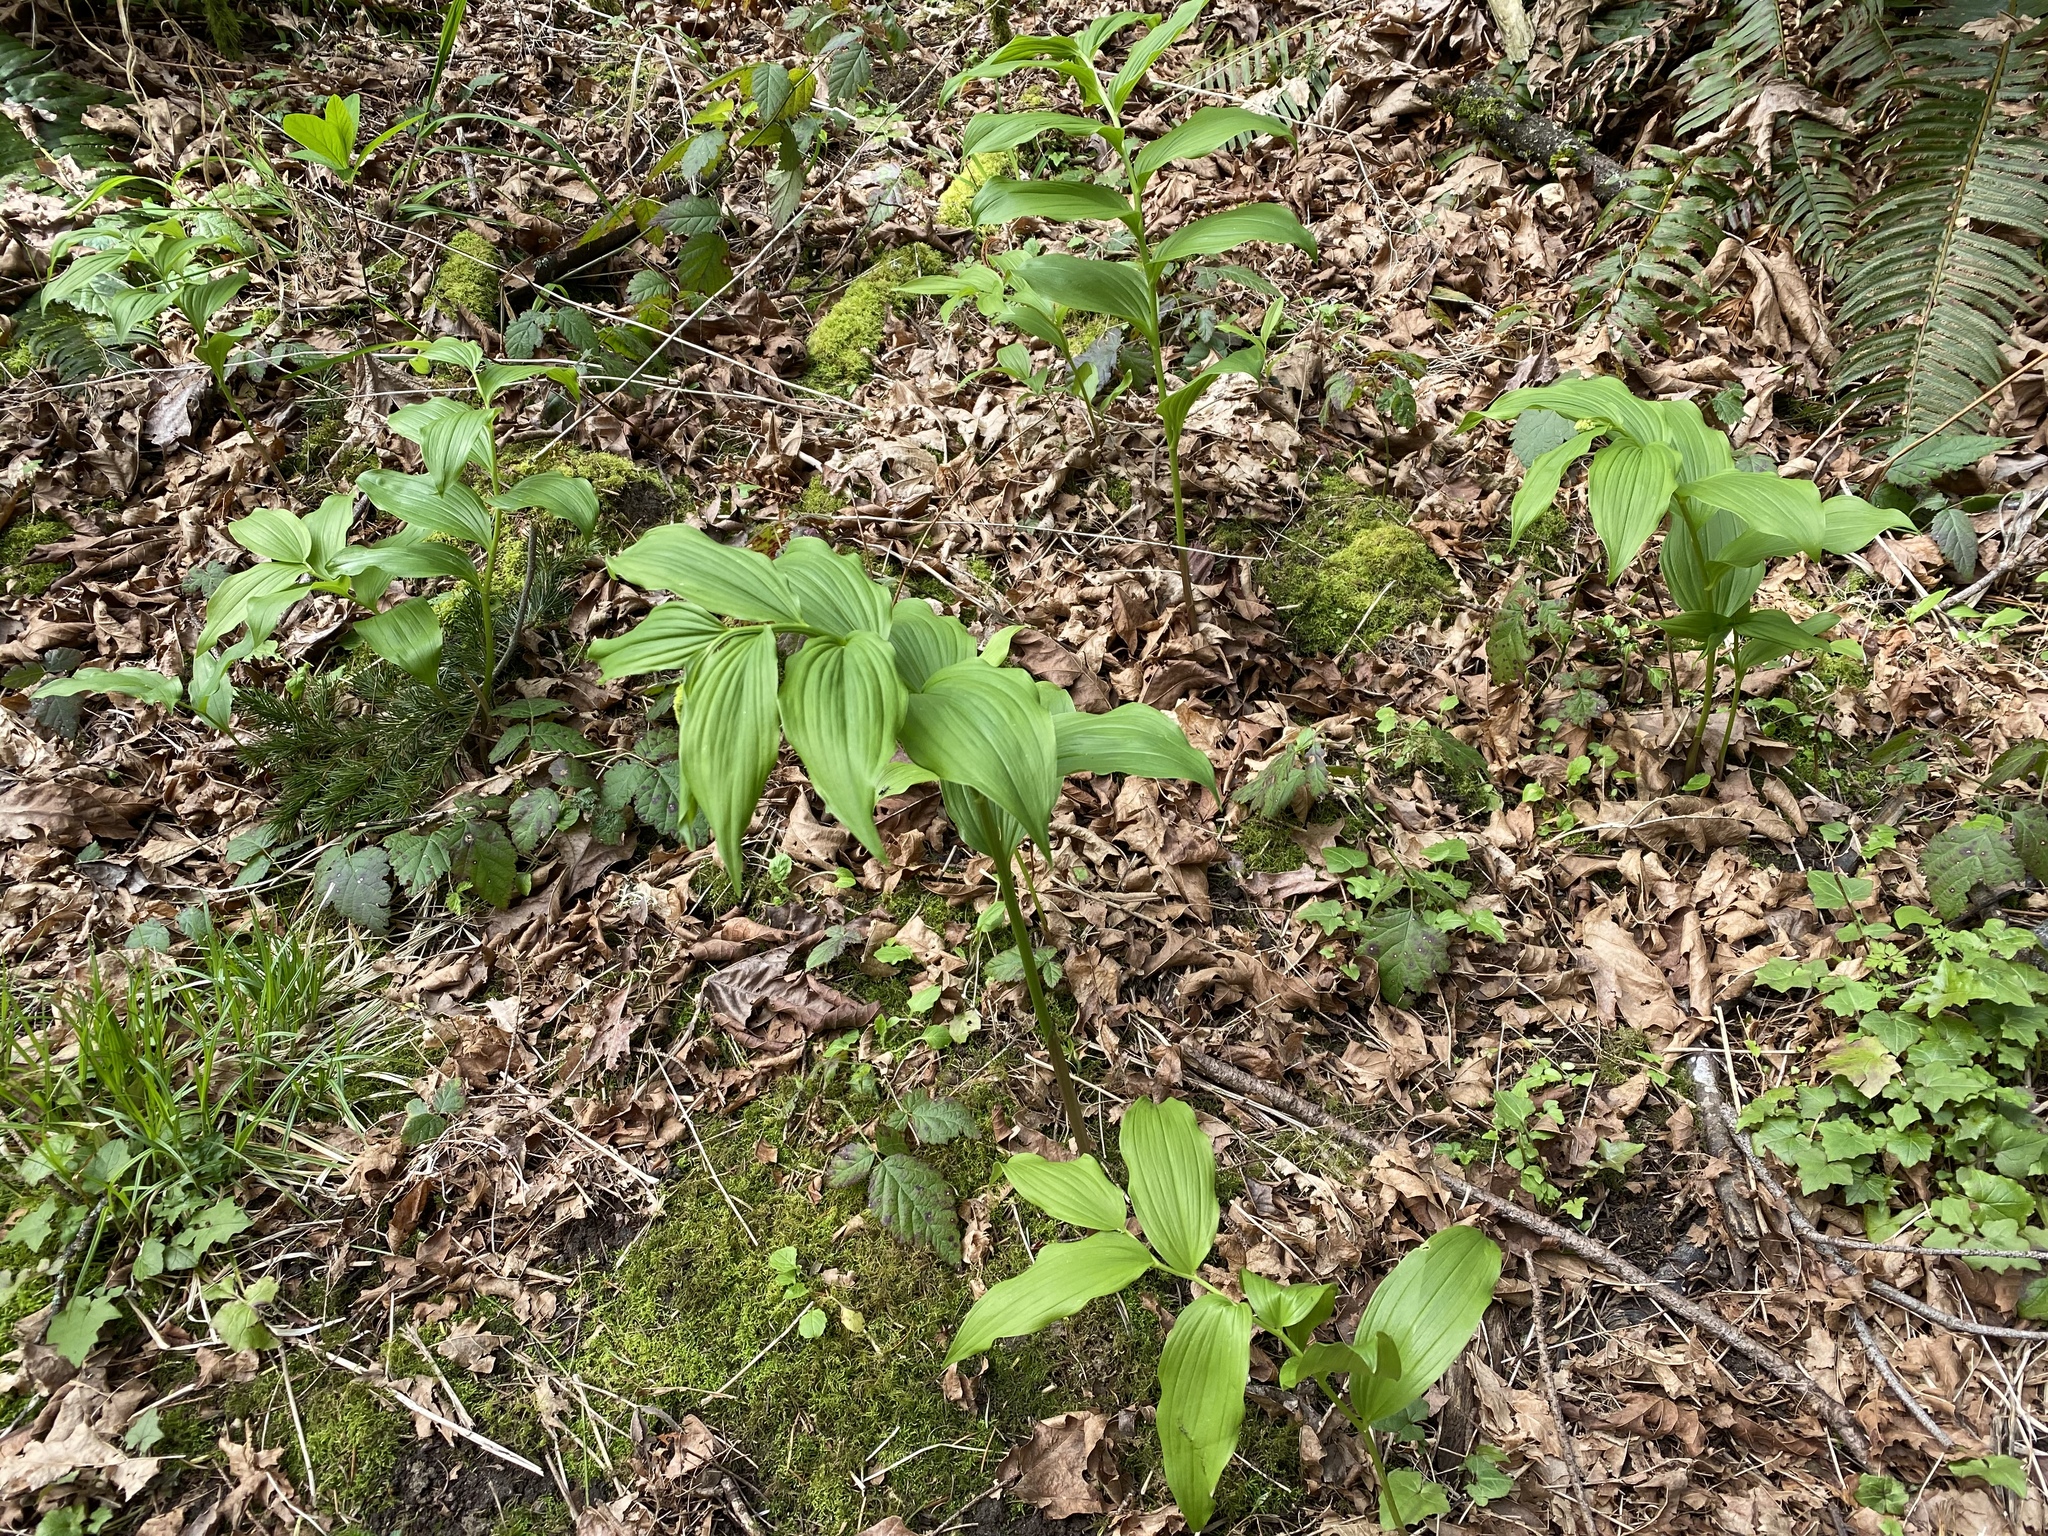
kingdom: Plantae
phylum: Tracheophyta
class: Liliopsida
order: Asparagales
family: Asparagaceae
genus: Maianthemum
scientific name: Maianthemum racemosum
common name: False spikenard
